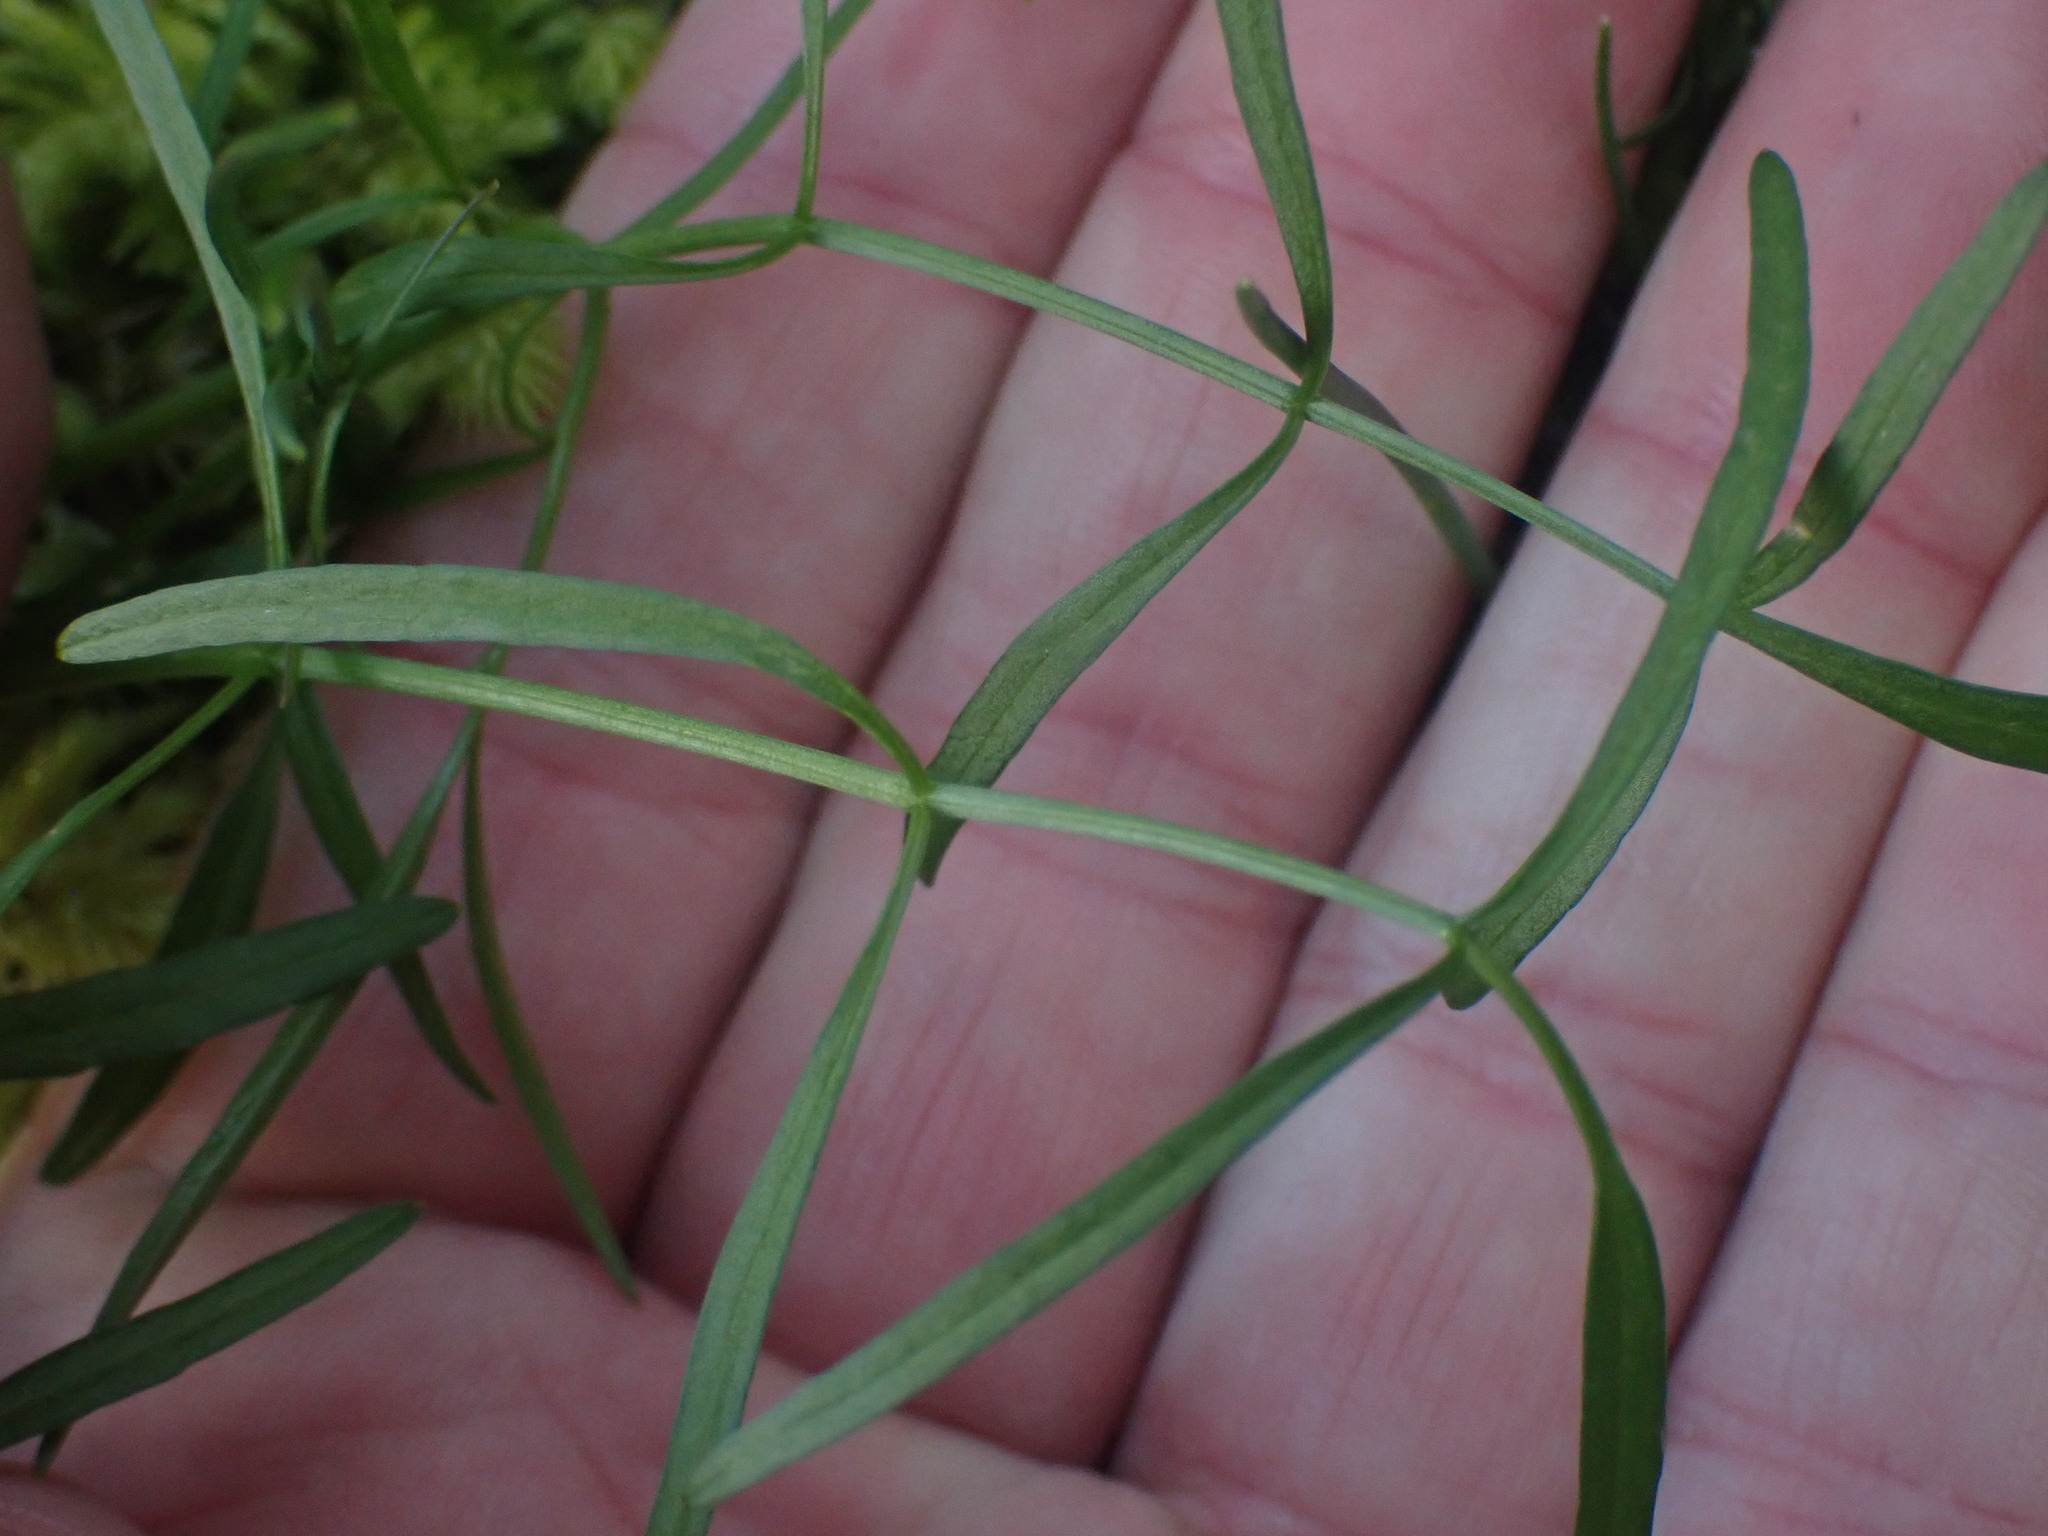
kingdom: Plantae
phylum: Tracheophyta
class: Magnoliopsida
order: Apiales
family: Apiaceae
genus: Perideridia
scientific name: Perideridia gairdneri
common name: False caraway
